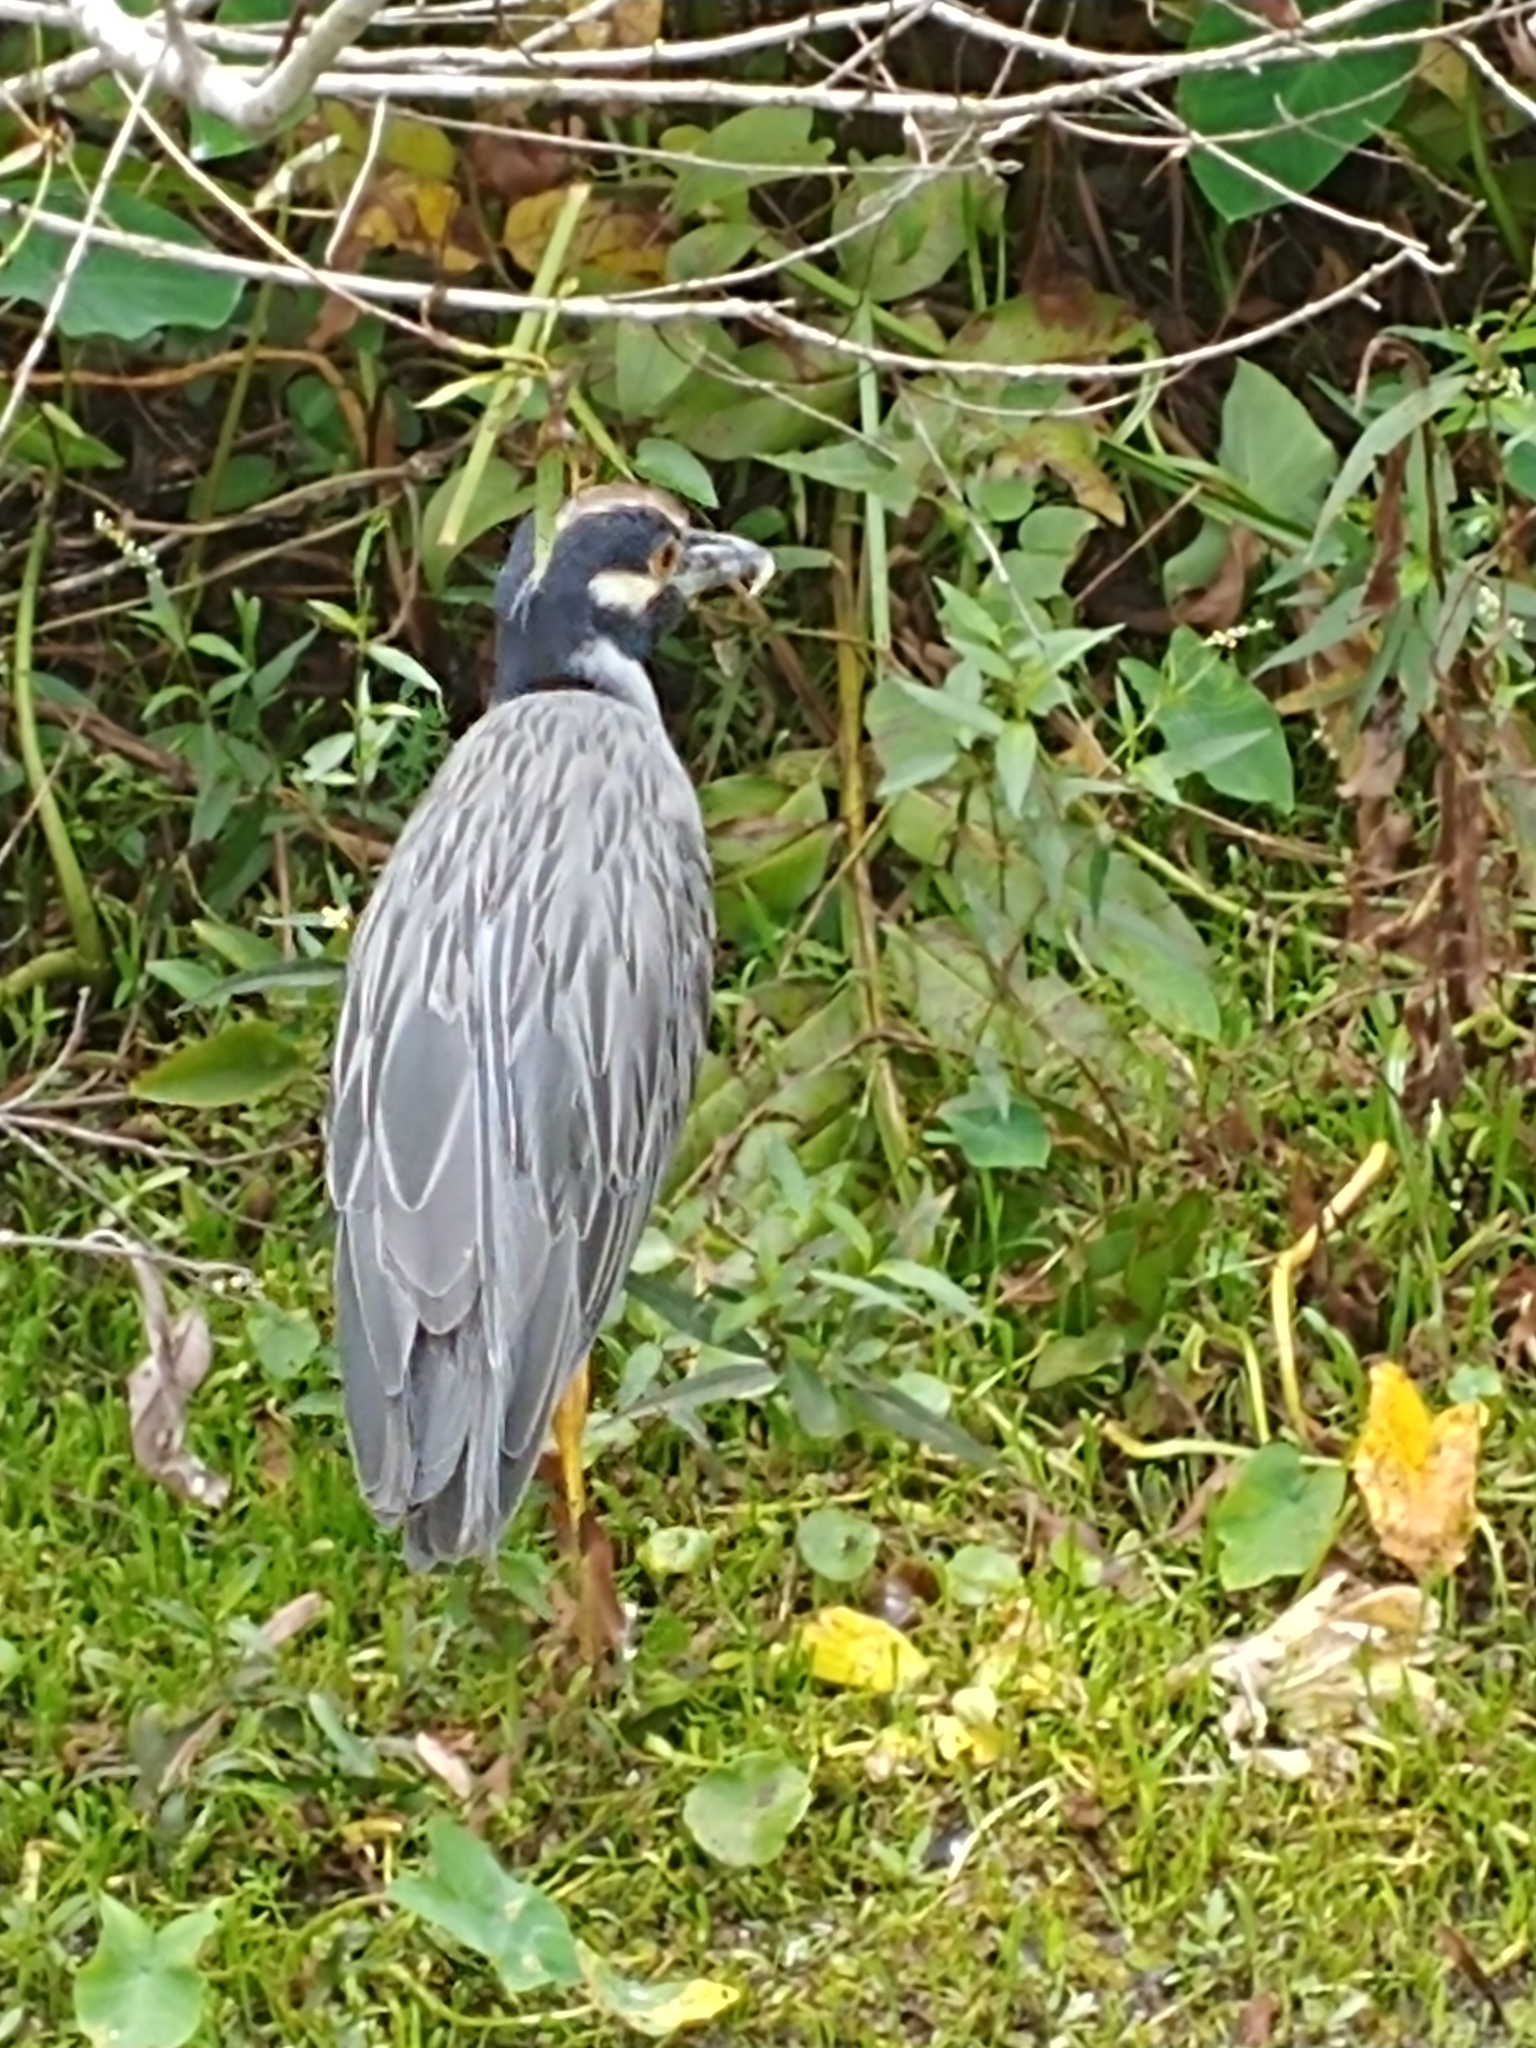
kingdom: Animalia
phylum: Chordata
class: Aves
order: Pelecaniformes
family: Ardeidae
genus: Nyctanassa
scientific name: Nyctanassa violacea
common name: Yellow-crowned night heron
